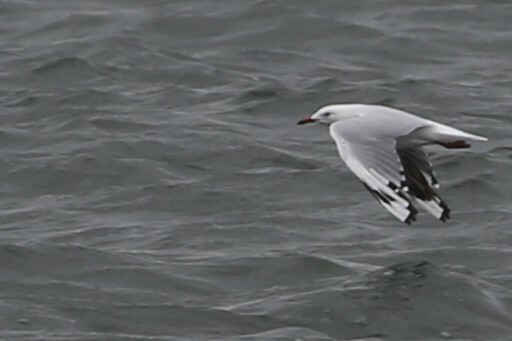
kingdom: Animalia
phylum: Chordata
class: Aves
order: Charadriiformes
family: Laridae
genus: Chroicocephalus
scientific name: Chroicocephalus novaehollandiae
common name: Silver gull
